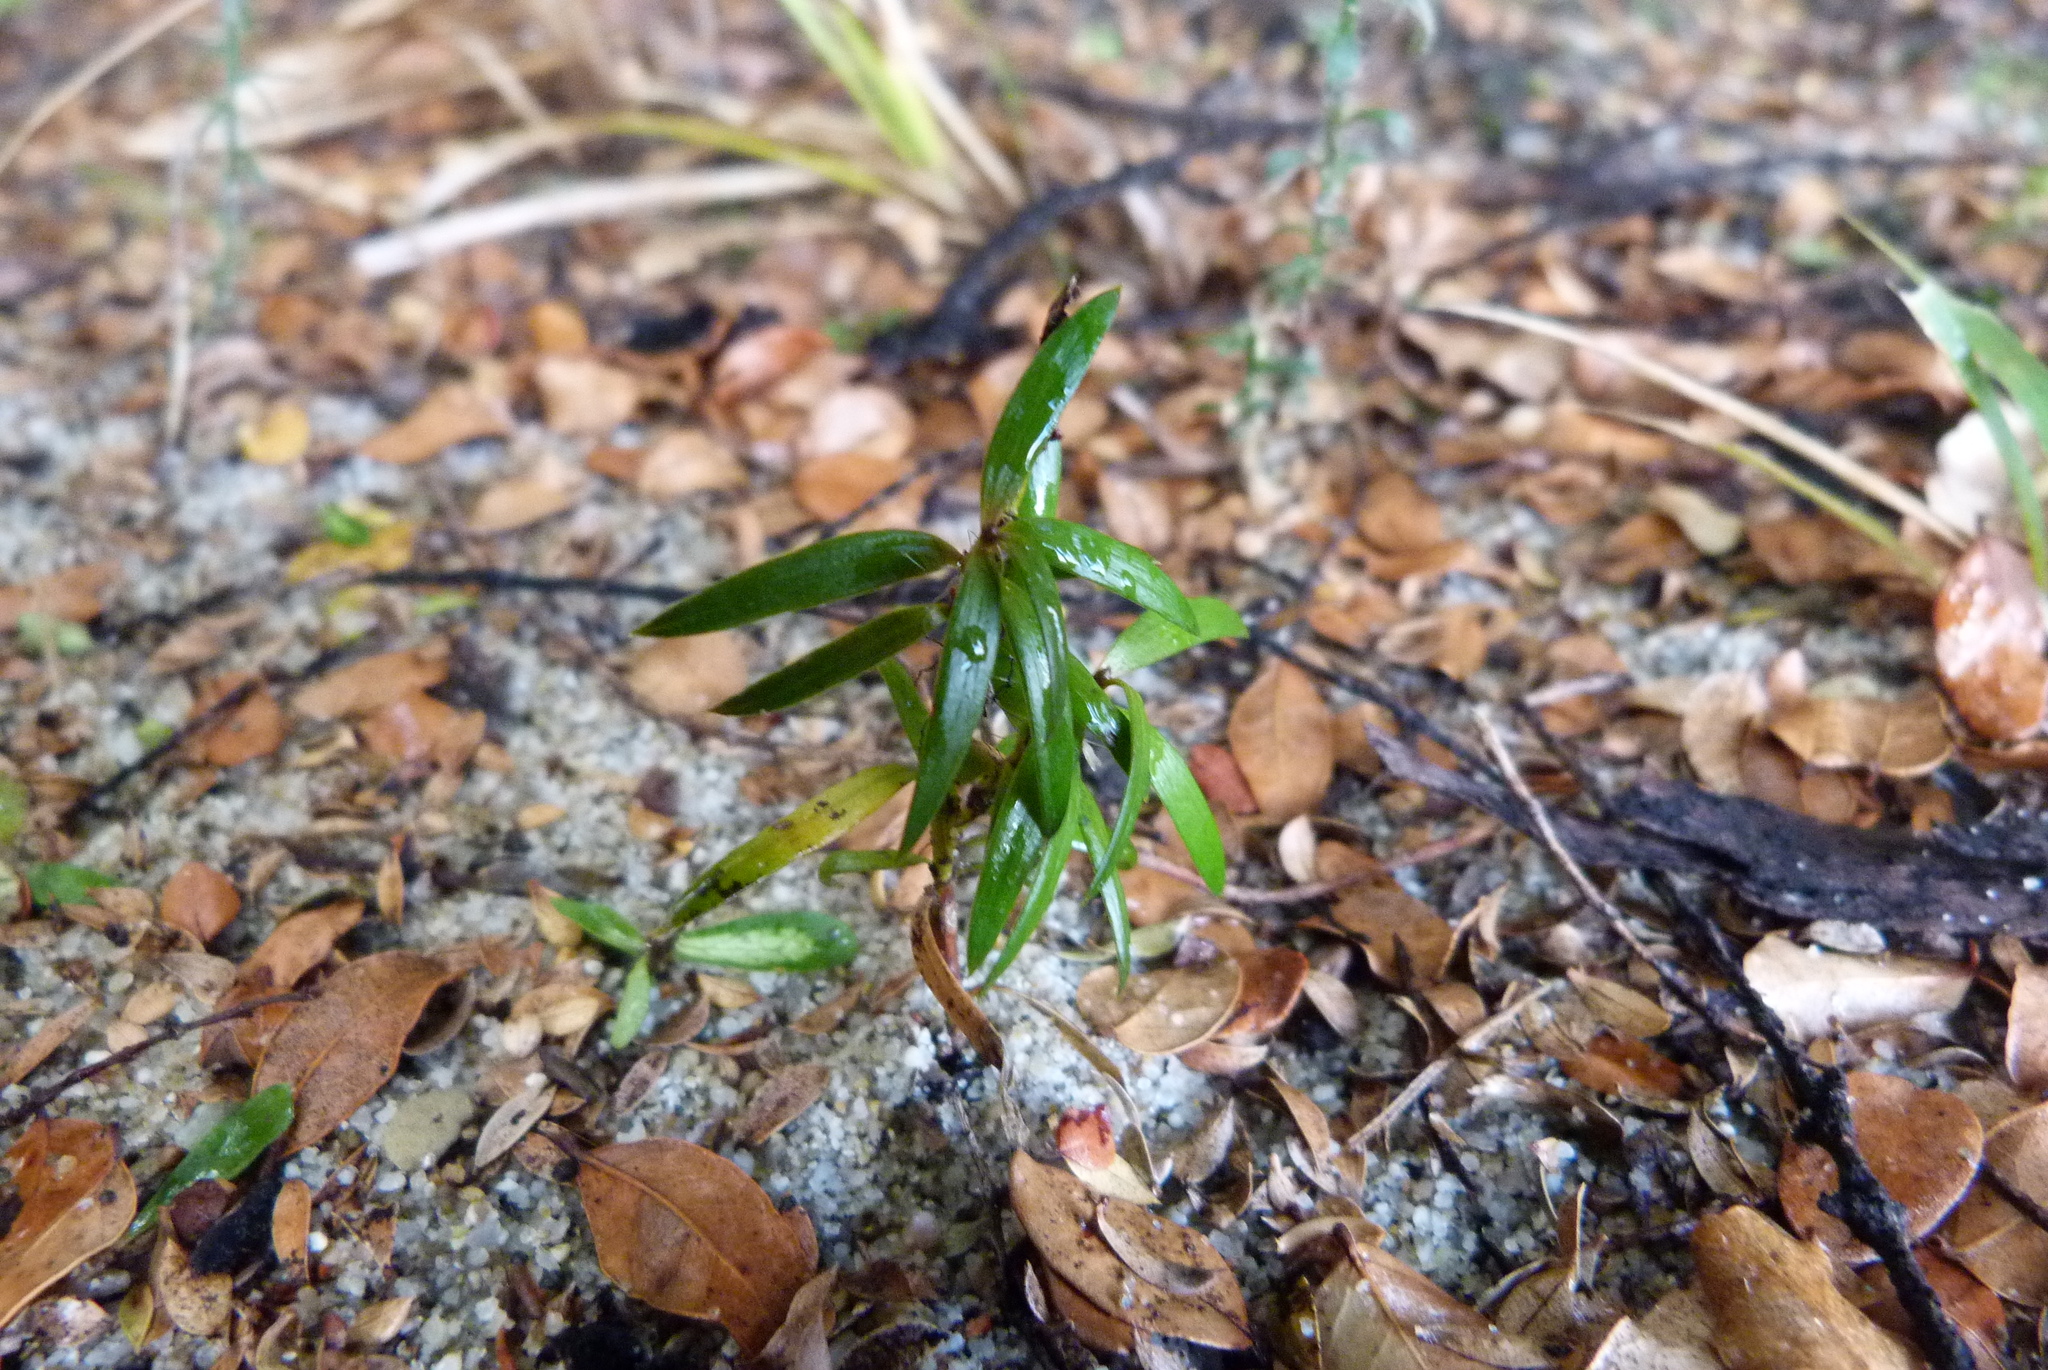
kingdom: Plantae
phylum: Tracheophyta
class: Pinopsida
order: Pinales
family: Podocarpaceae
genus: Podocarpus
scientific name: Podocarpus laetus
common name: Hall's totara
